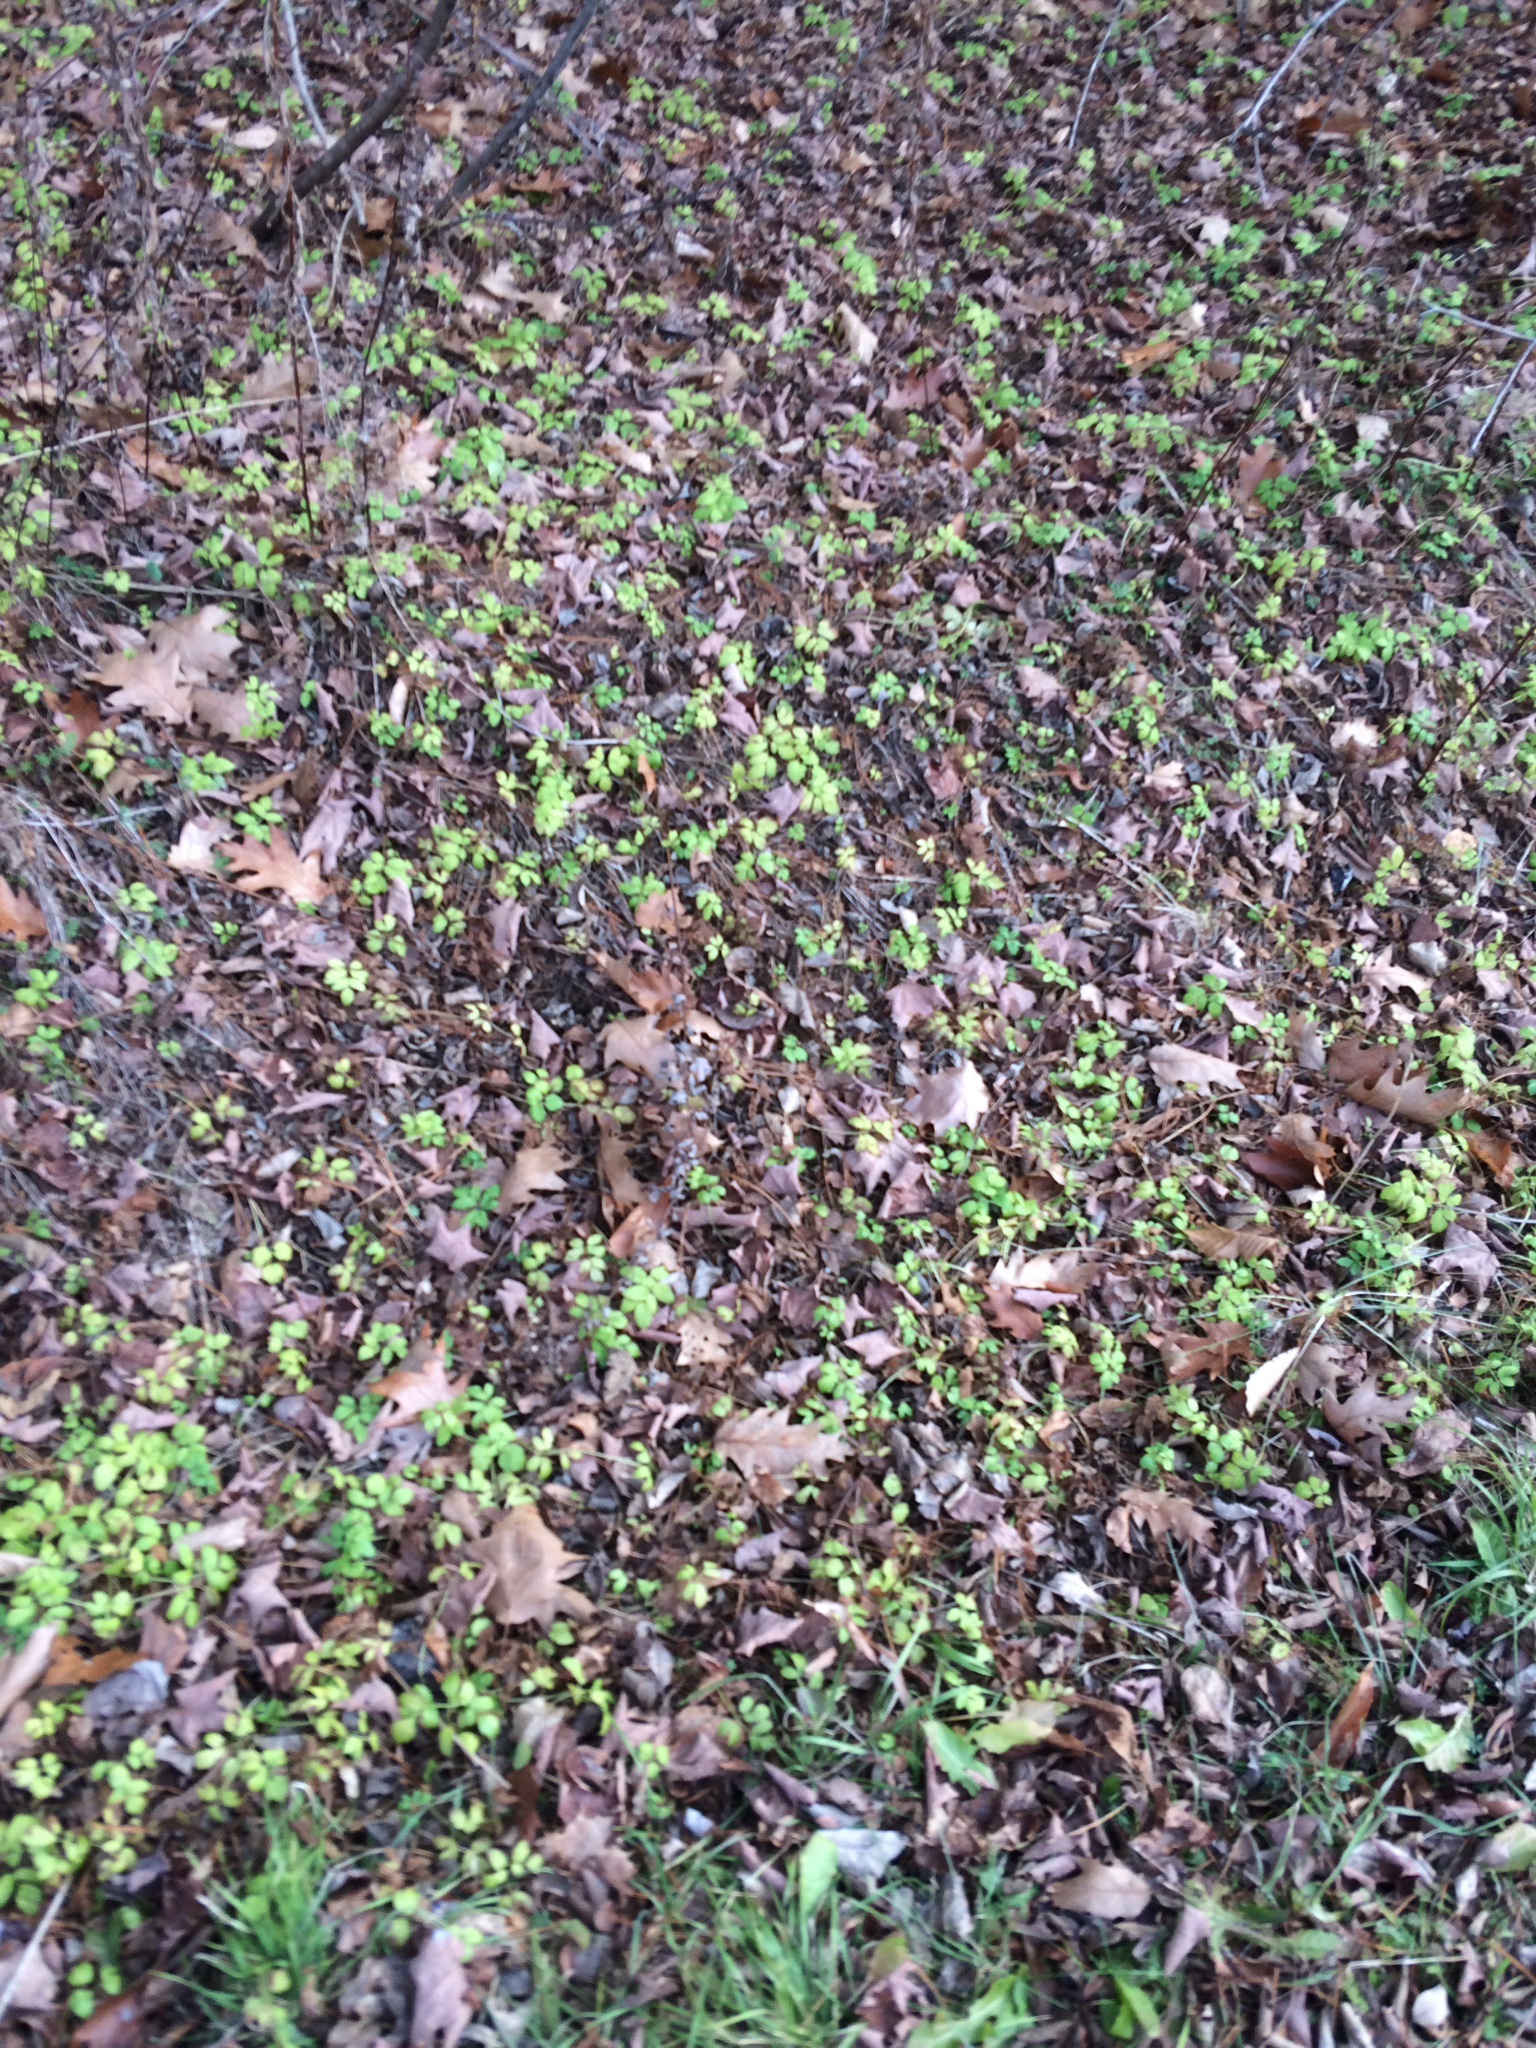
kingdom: Plantae
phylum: Tracheophyta
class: Magnoliopsida
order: Apiales
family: Apiaceae
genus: Aegopodium
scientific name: Aegopodium podagraria
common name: Ground-elder
